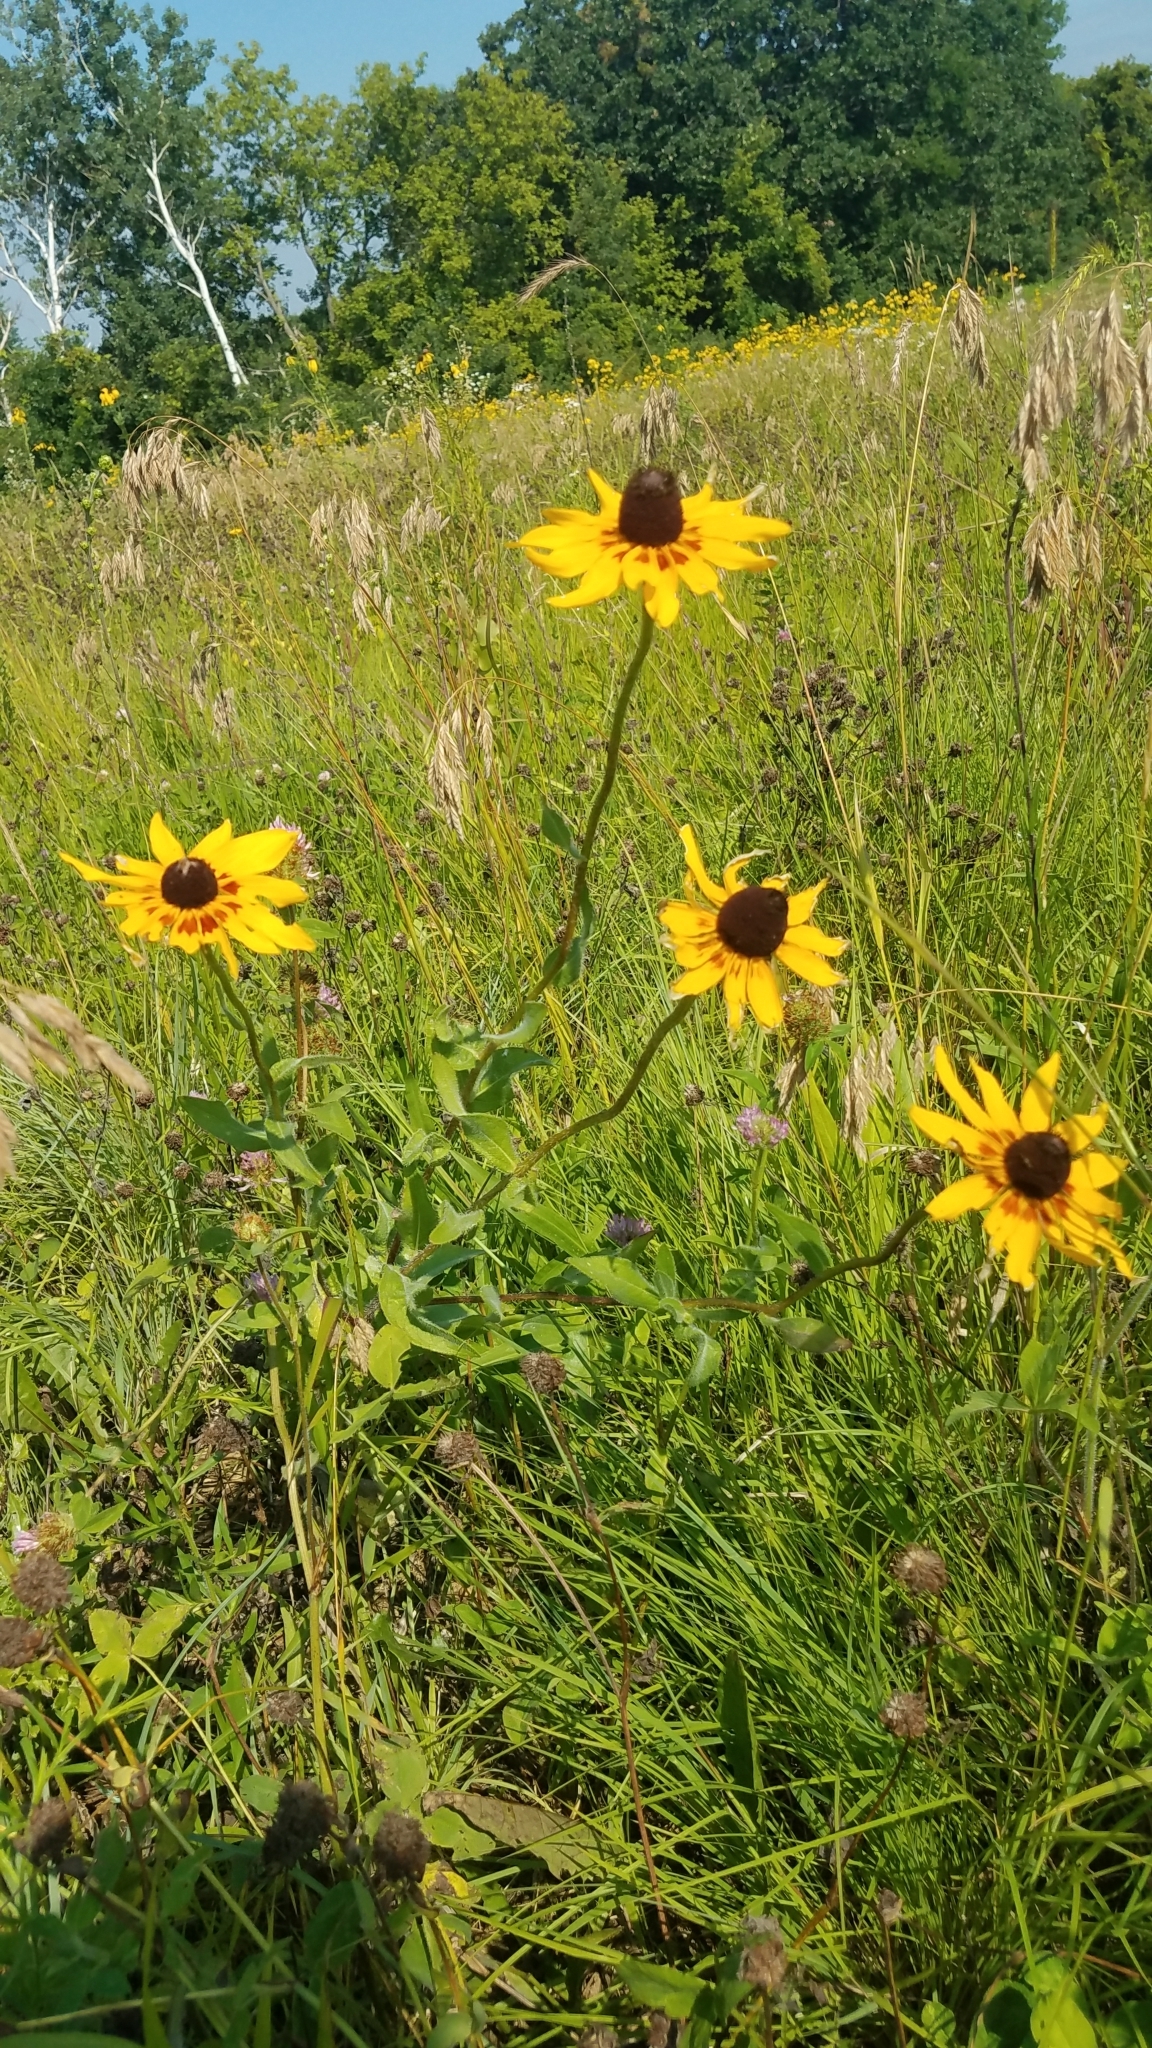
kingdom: Plantae
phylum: Tracheophyta
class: Magnoliopsida
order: Asterales
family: Asteraceae
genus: Rudbeckia
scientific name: Rudbeckia hirta
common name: Black-eyed-susan
